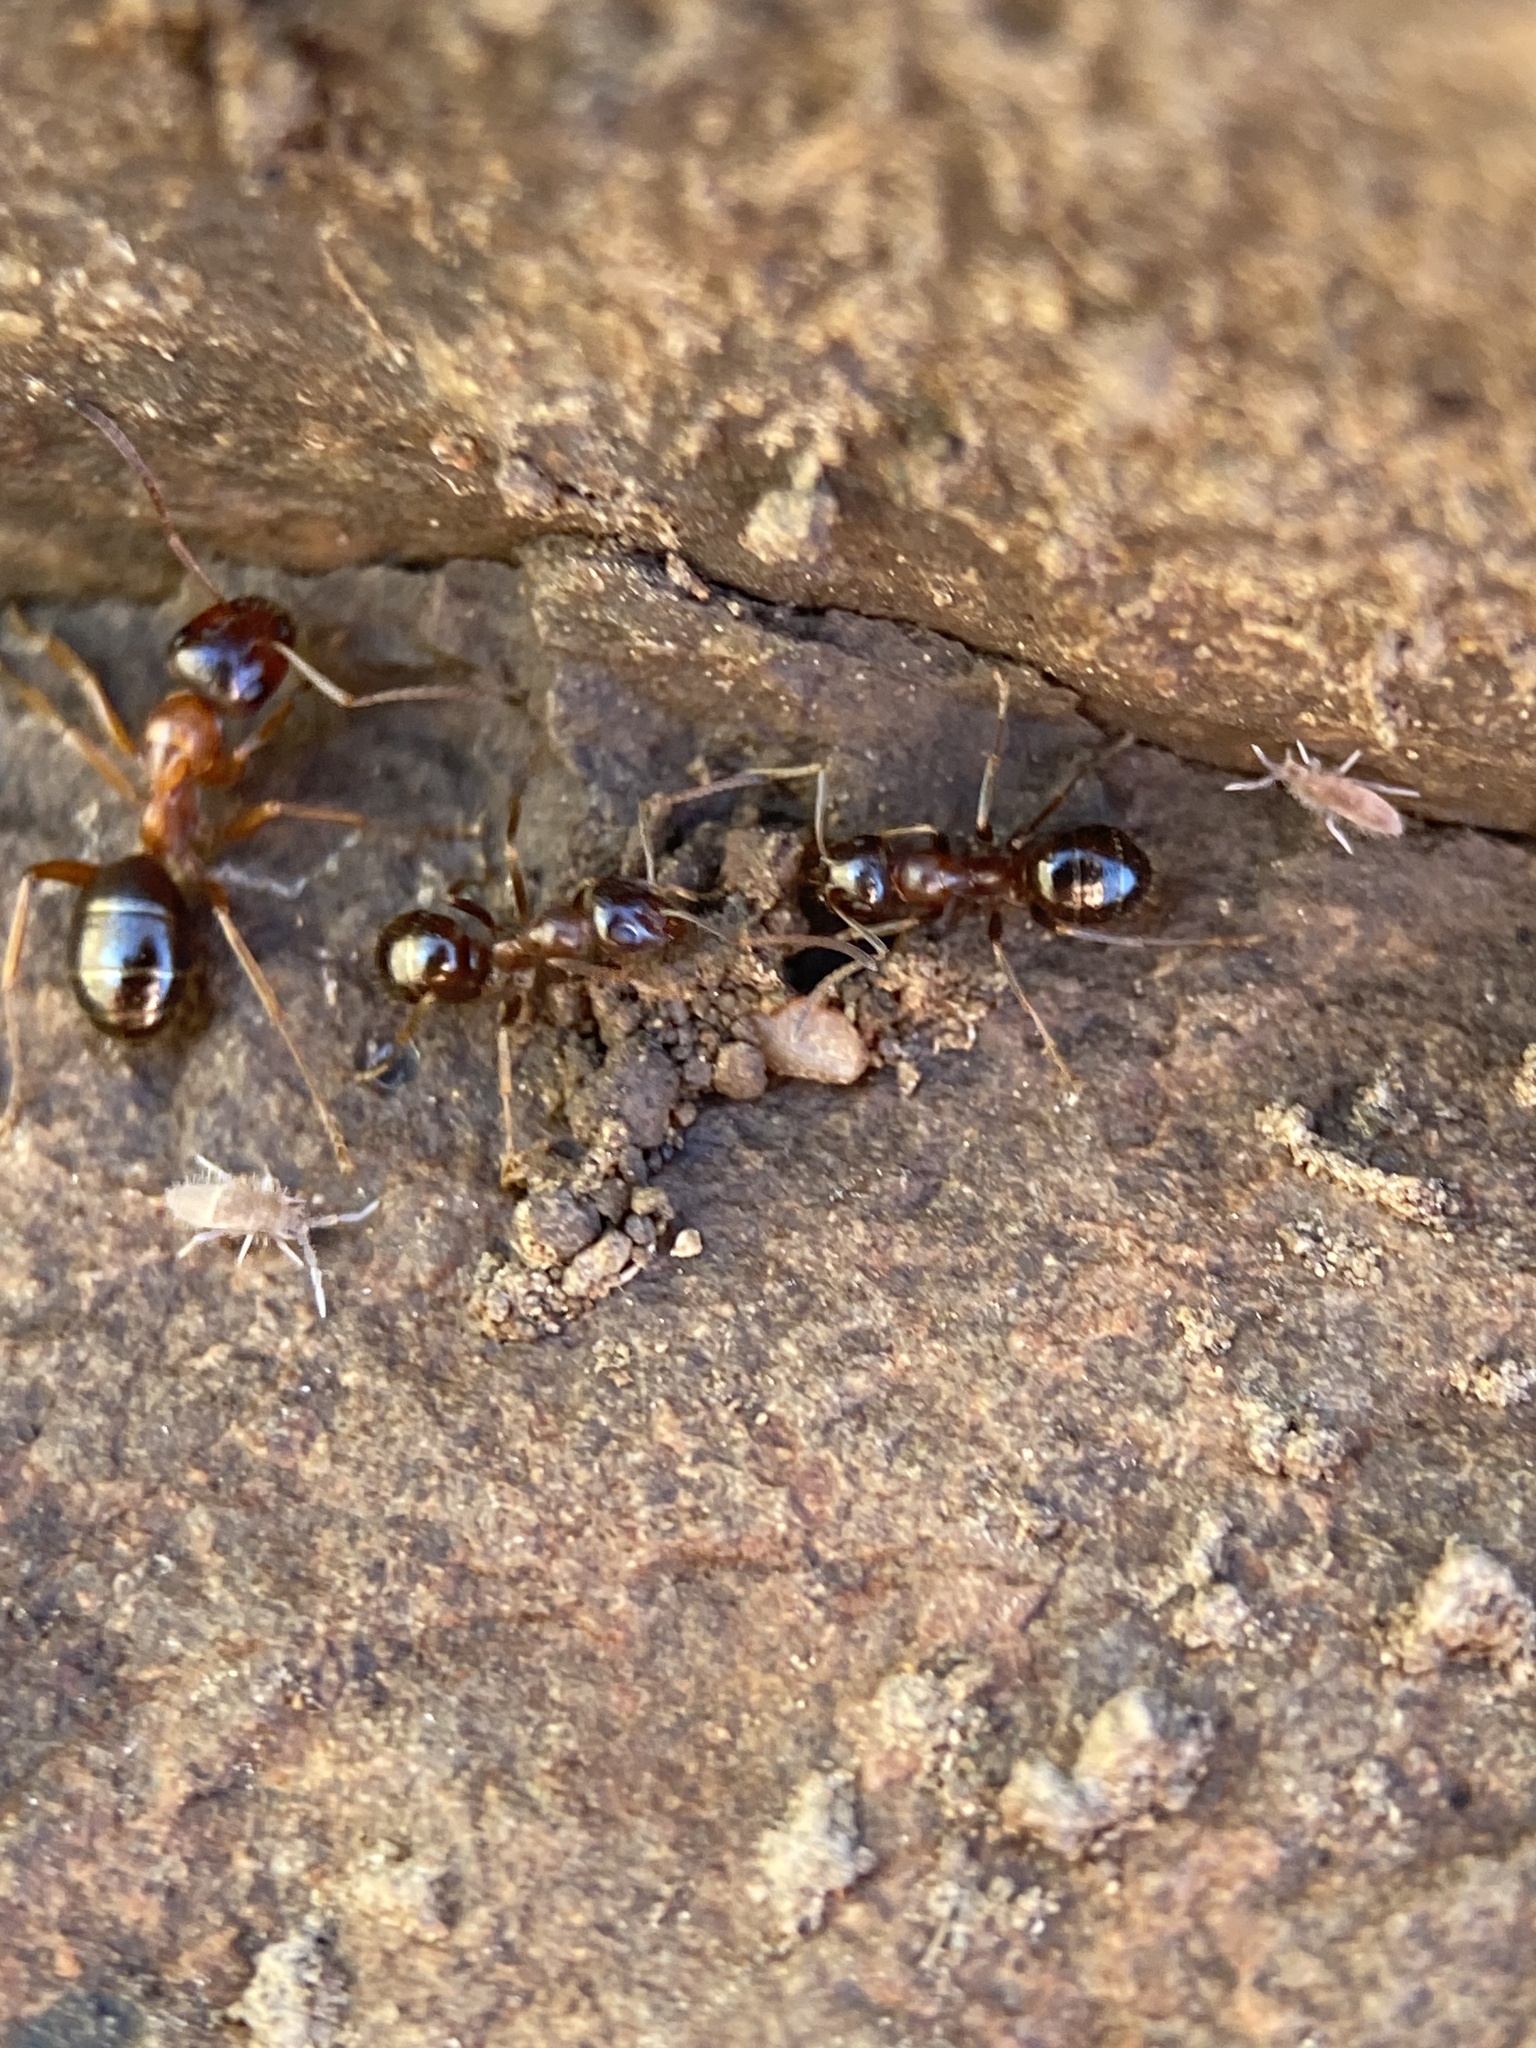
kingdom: Animalia
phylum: Arthropoda
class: Insecta
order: Hymenoptera
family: Formicidae
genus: Formica
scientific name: Formica subpolita
